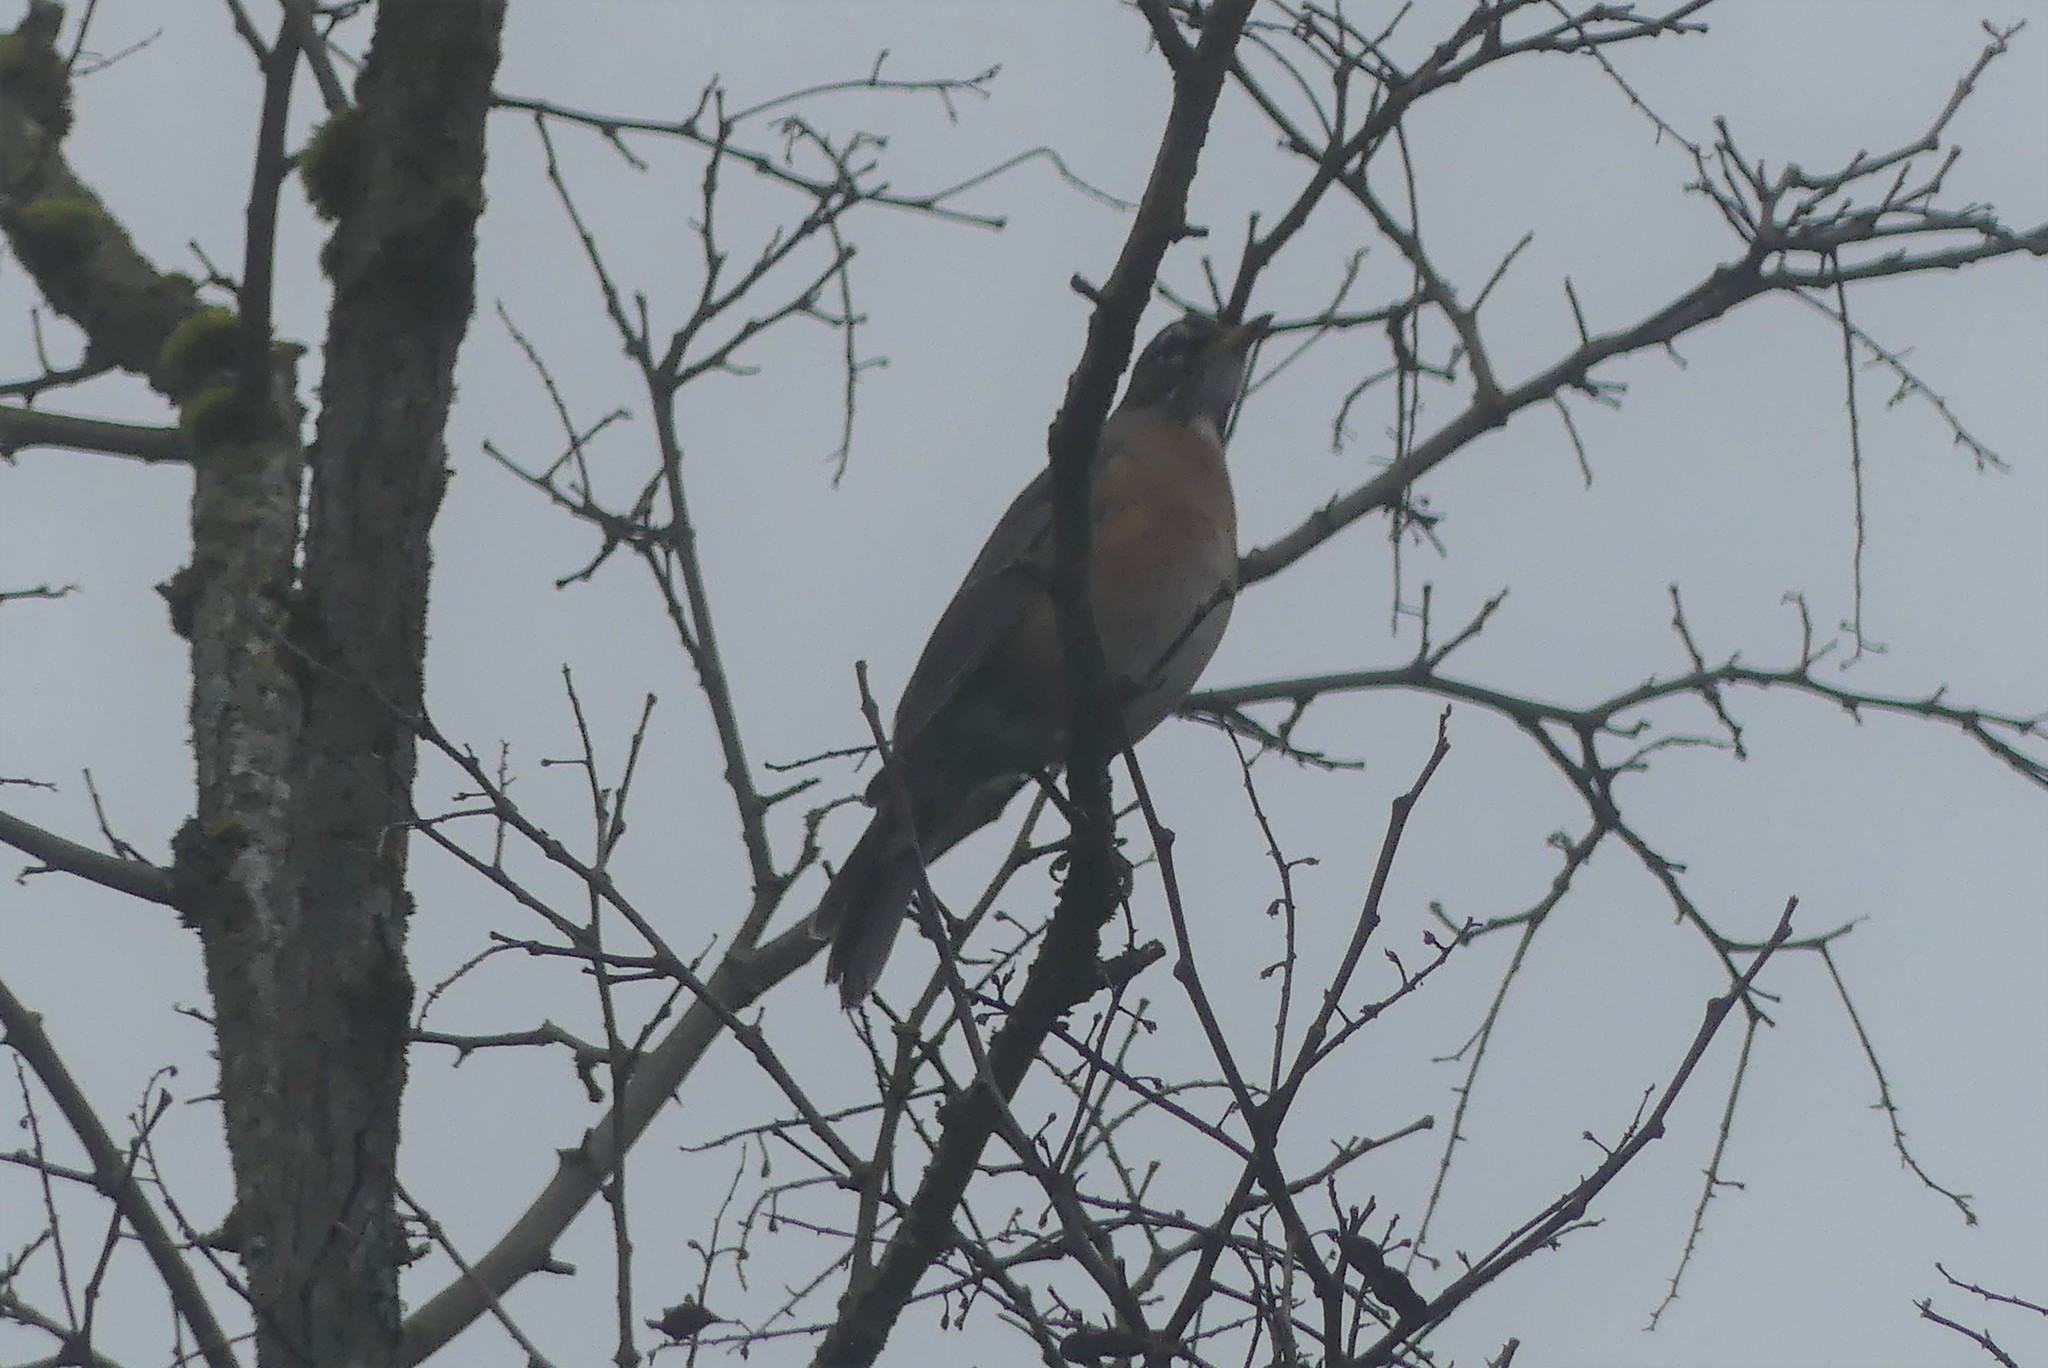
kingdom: Animalia
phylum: Chordata
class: Aves
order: Passeriformes
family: Turdidae
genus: Turdus
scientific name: Turdus migratorius
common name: American robin
